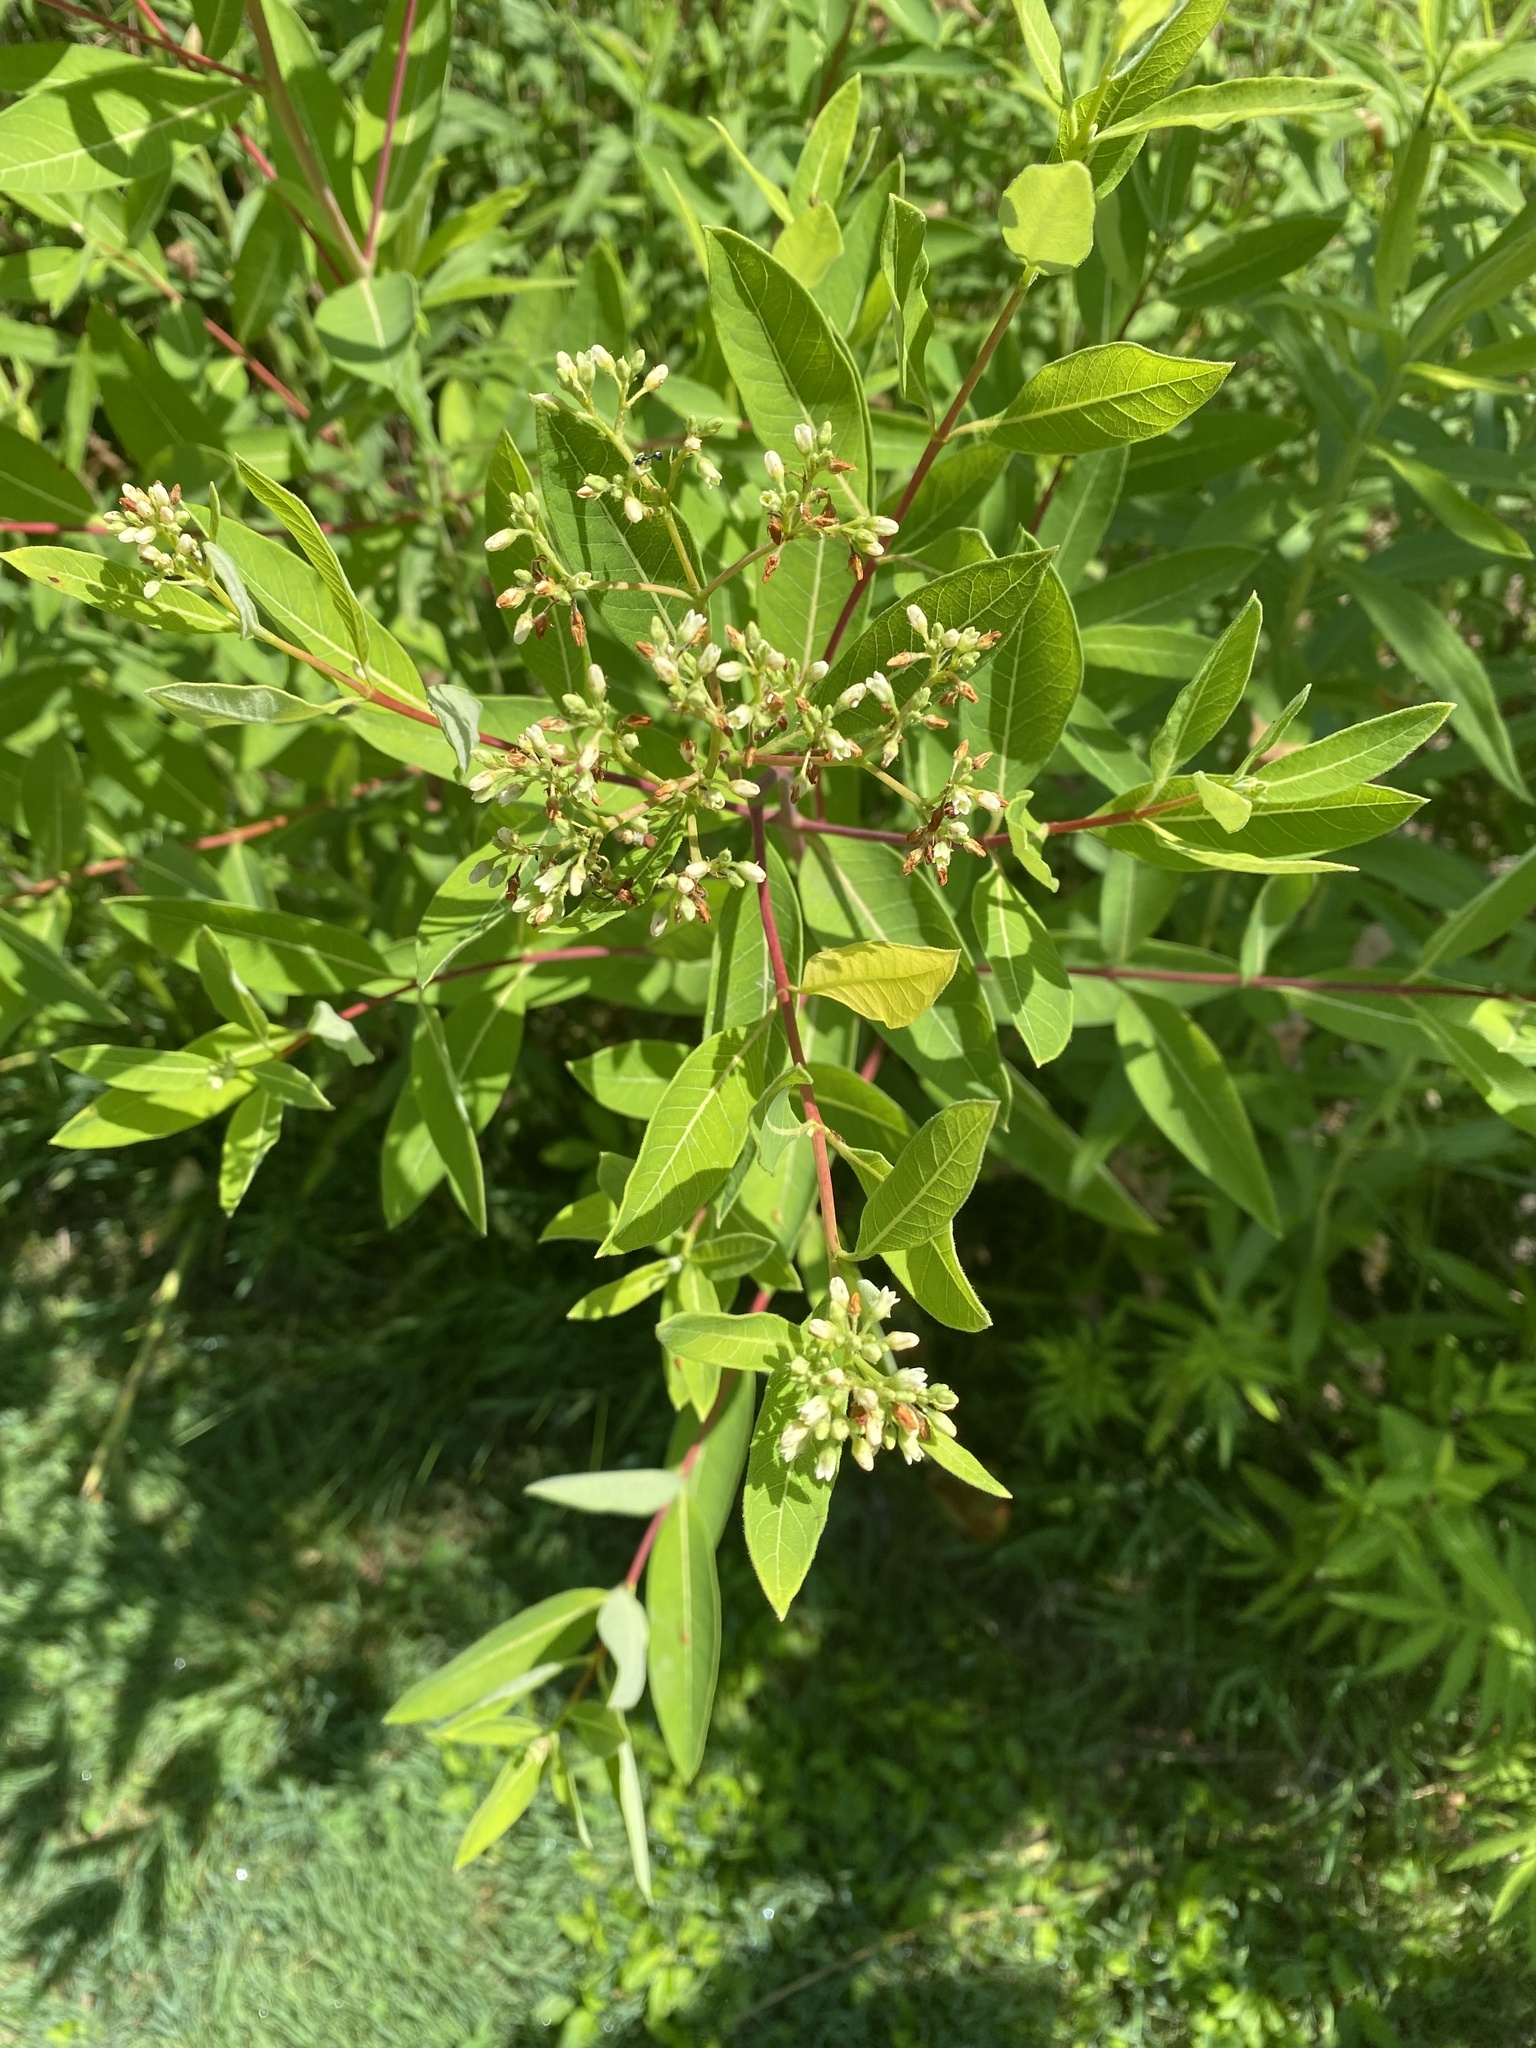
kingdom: Plantae
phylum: Tracheophyta
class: Magnoliopsida
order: Gentianales
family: Apocynaceae
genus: Apocynum
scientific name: Apocynum cannabinum
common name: Hemp dogbane
